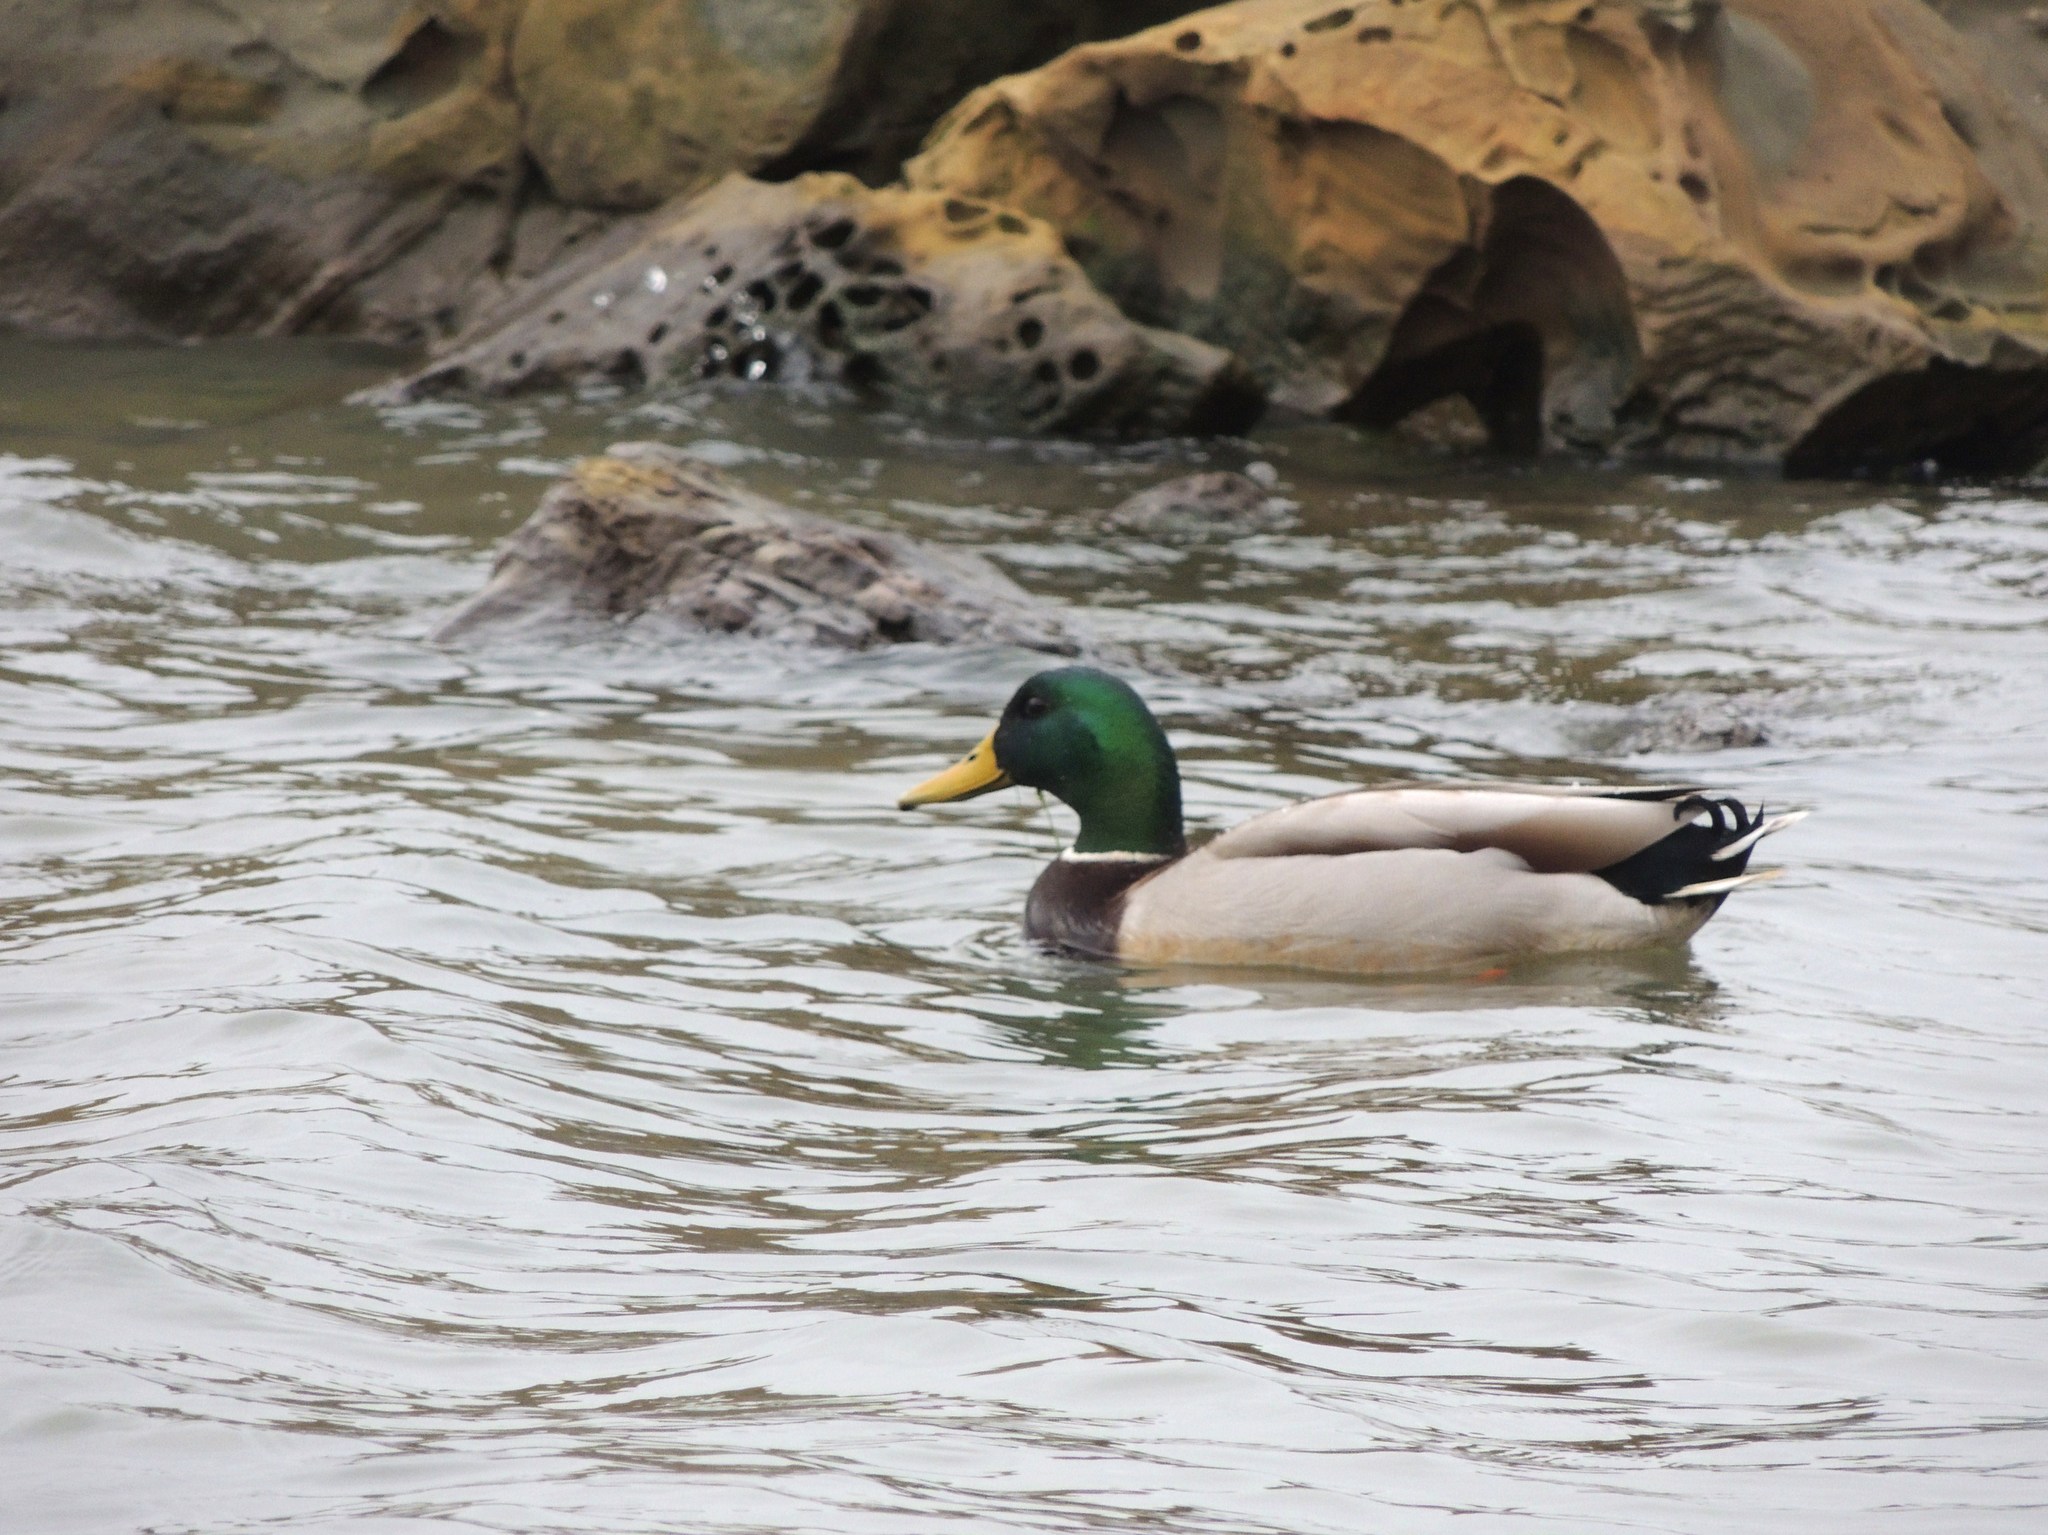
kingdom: Animalia
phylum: Chordata
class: Aves
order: Anseriformes
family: Anatidae
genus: Anas
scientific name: Anas platyrhynchos
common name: Mallard
